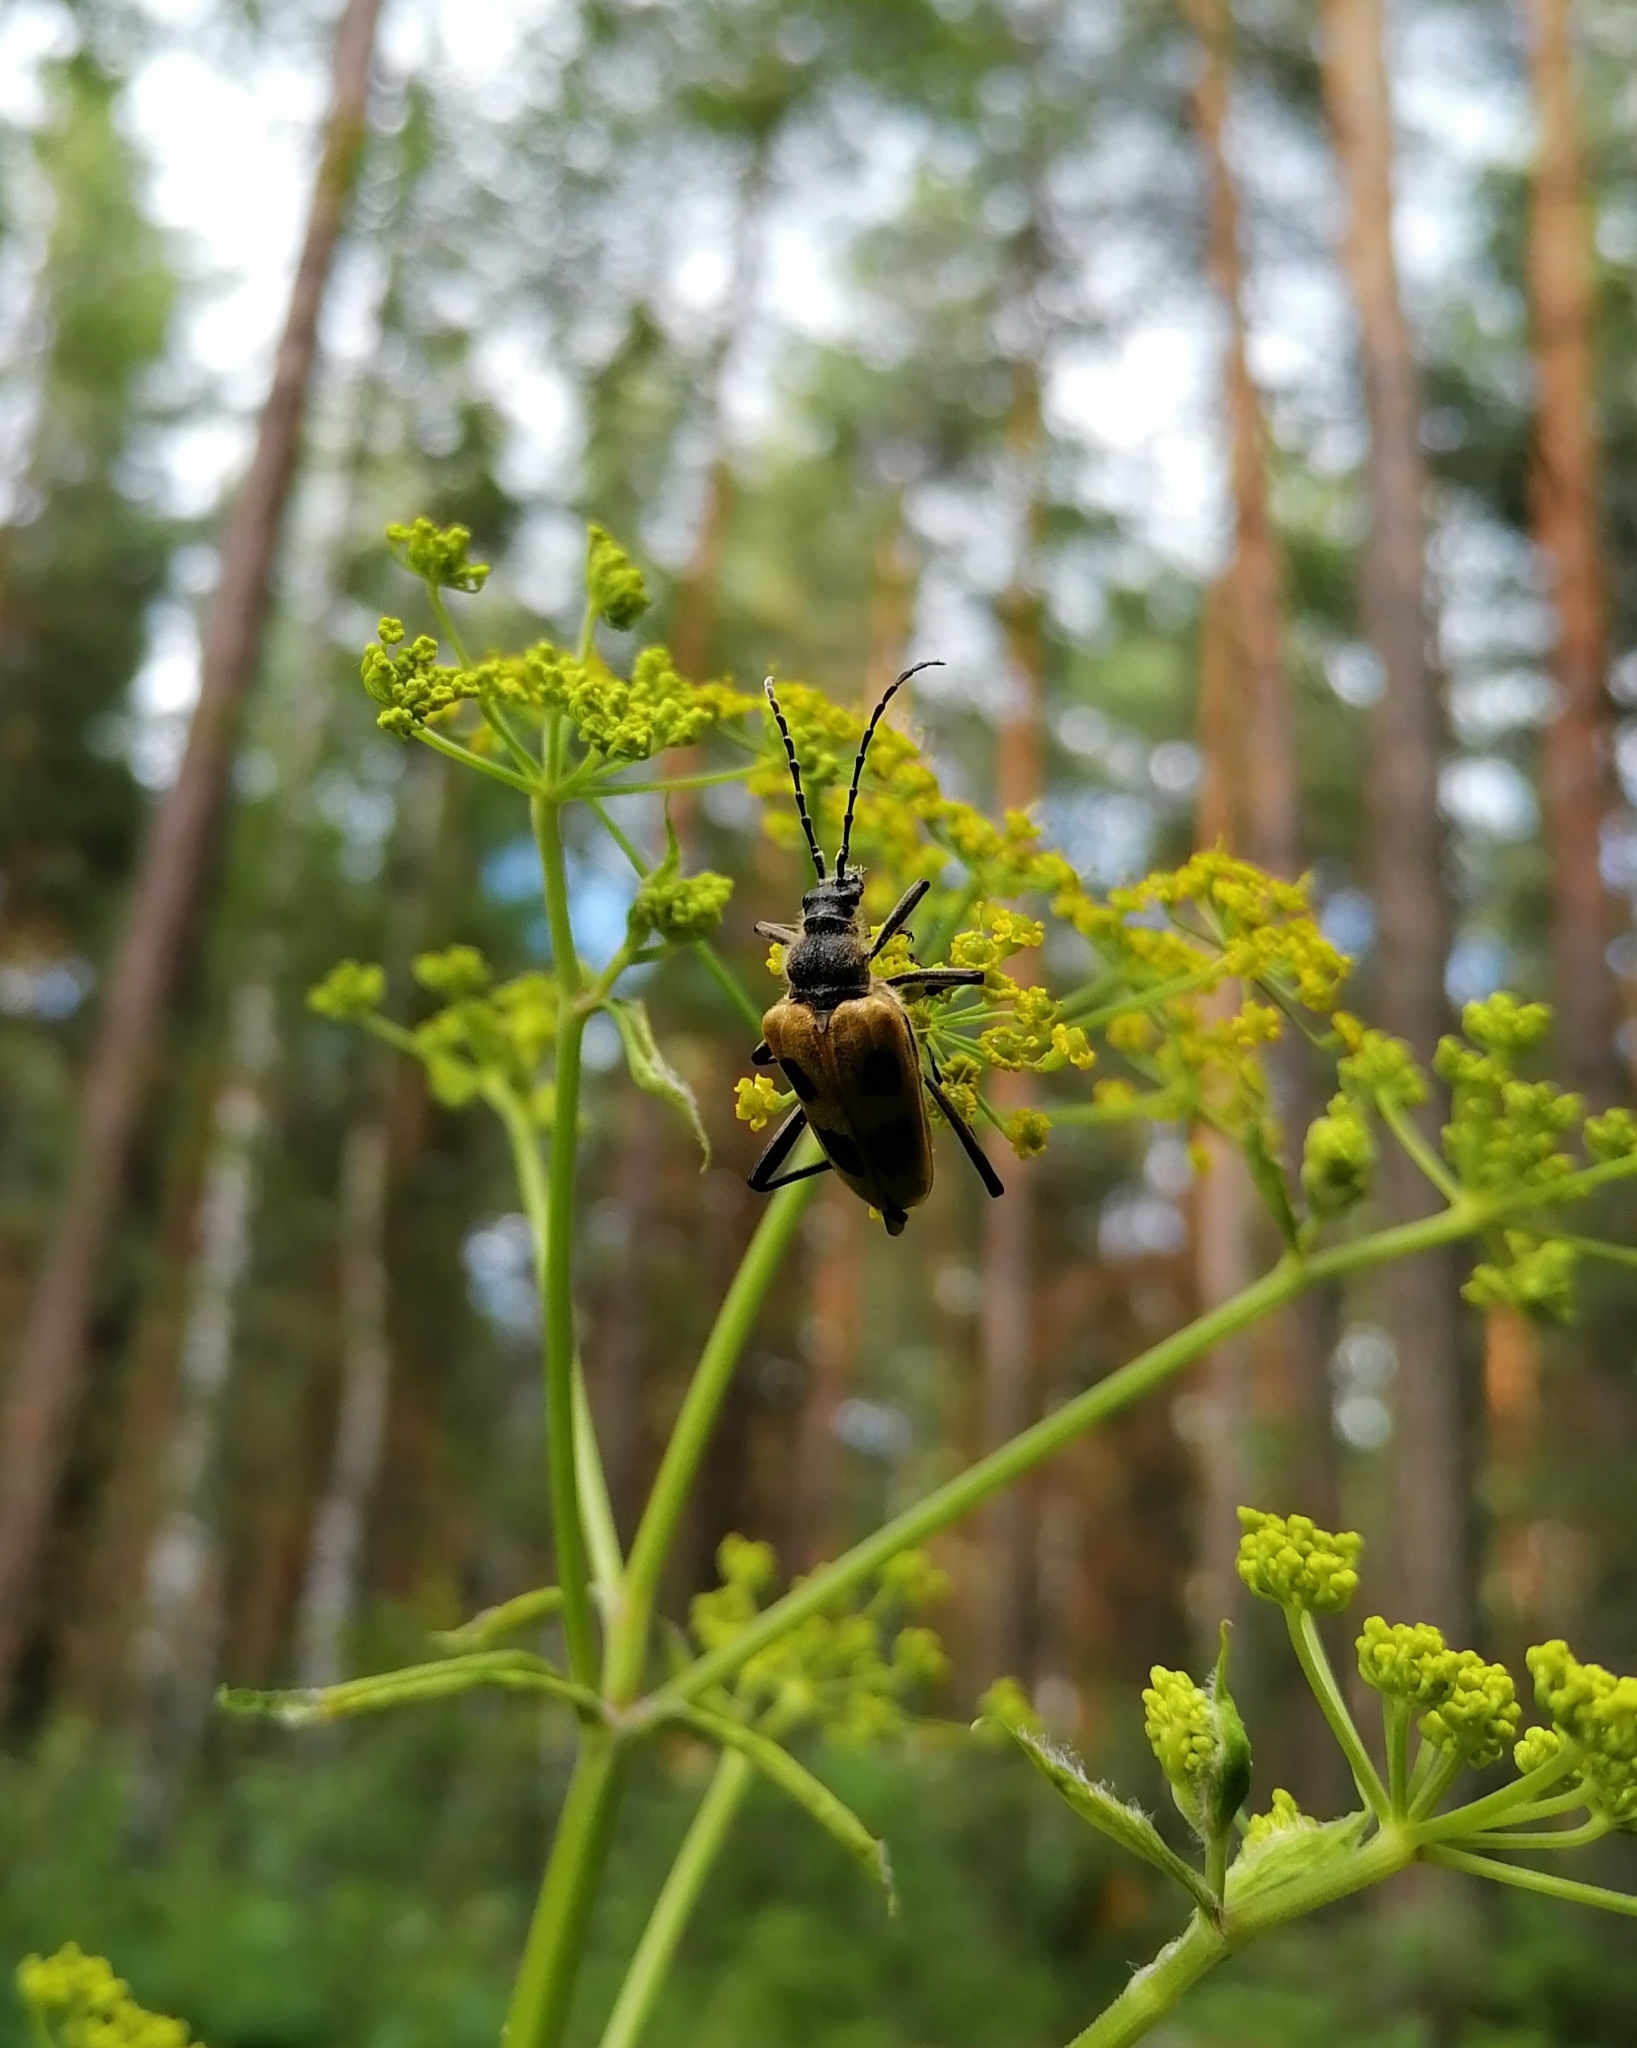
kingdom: Animalia
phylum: Arthropoda
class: Insecta
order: Coleoptera
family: Cerambycidae
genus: Pachyta
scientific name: Pachyta quadrimaculata
